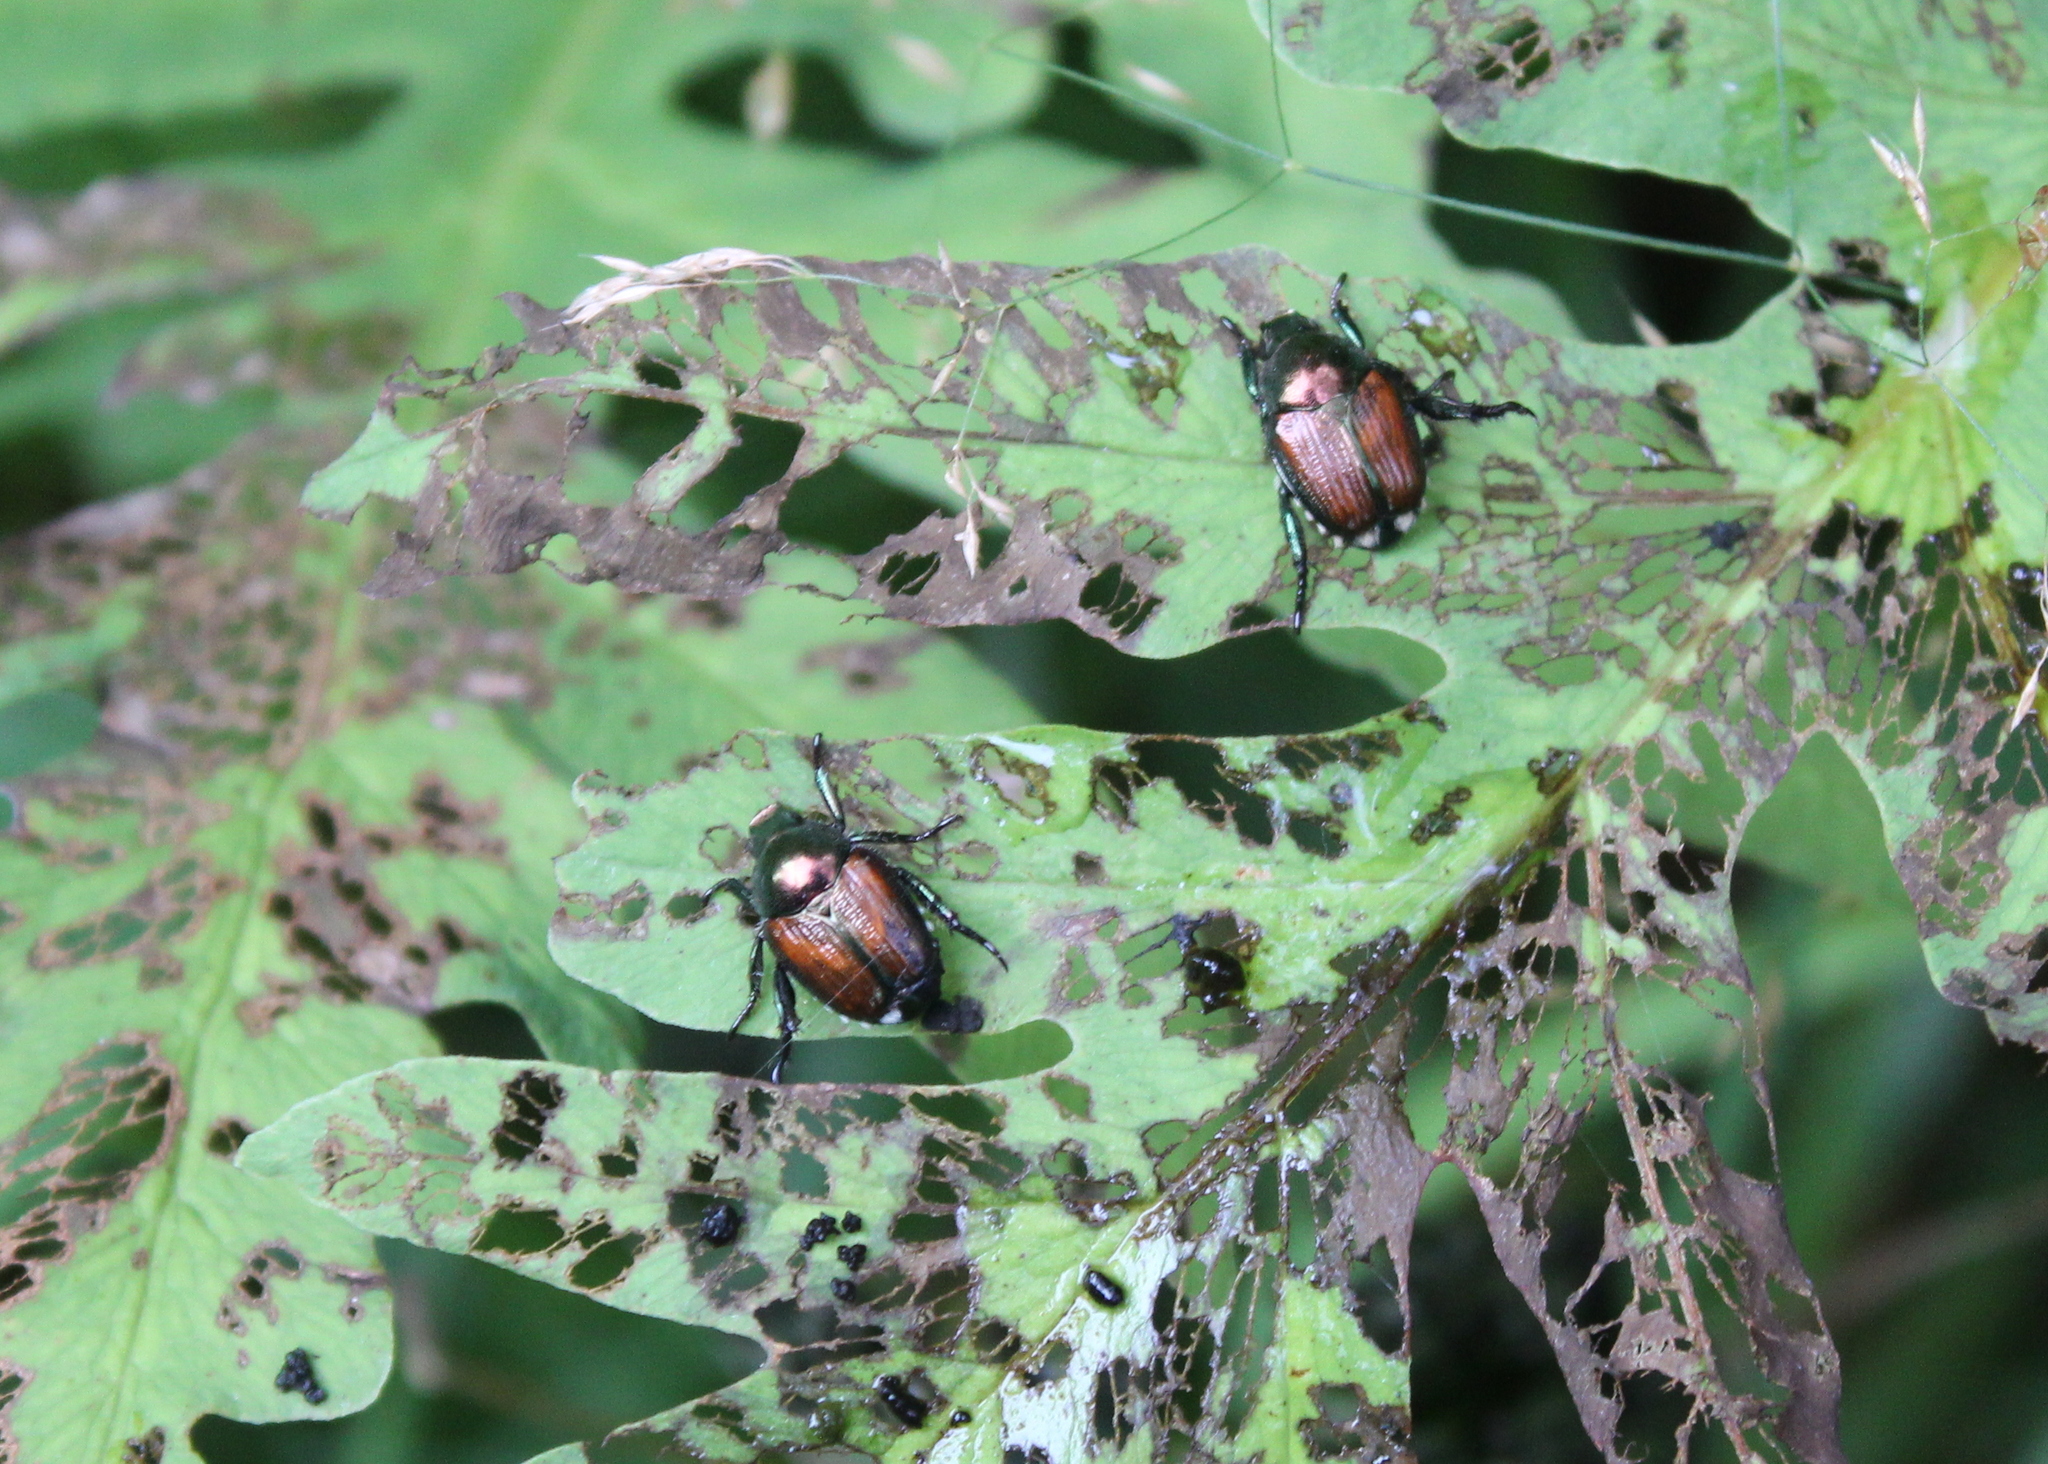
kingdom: Animalia
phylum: Arthropoda
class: Insecta
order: Coleoptera
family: Scarabaeidae
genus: Popillia
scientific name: Popillia japonica
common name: Japanese beetle
